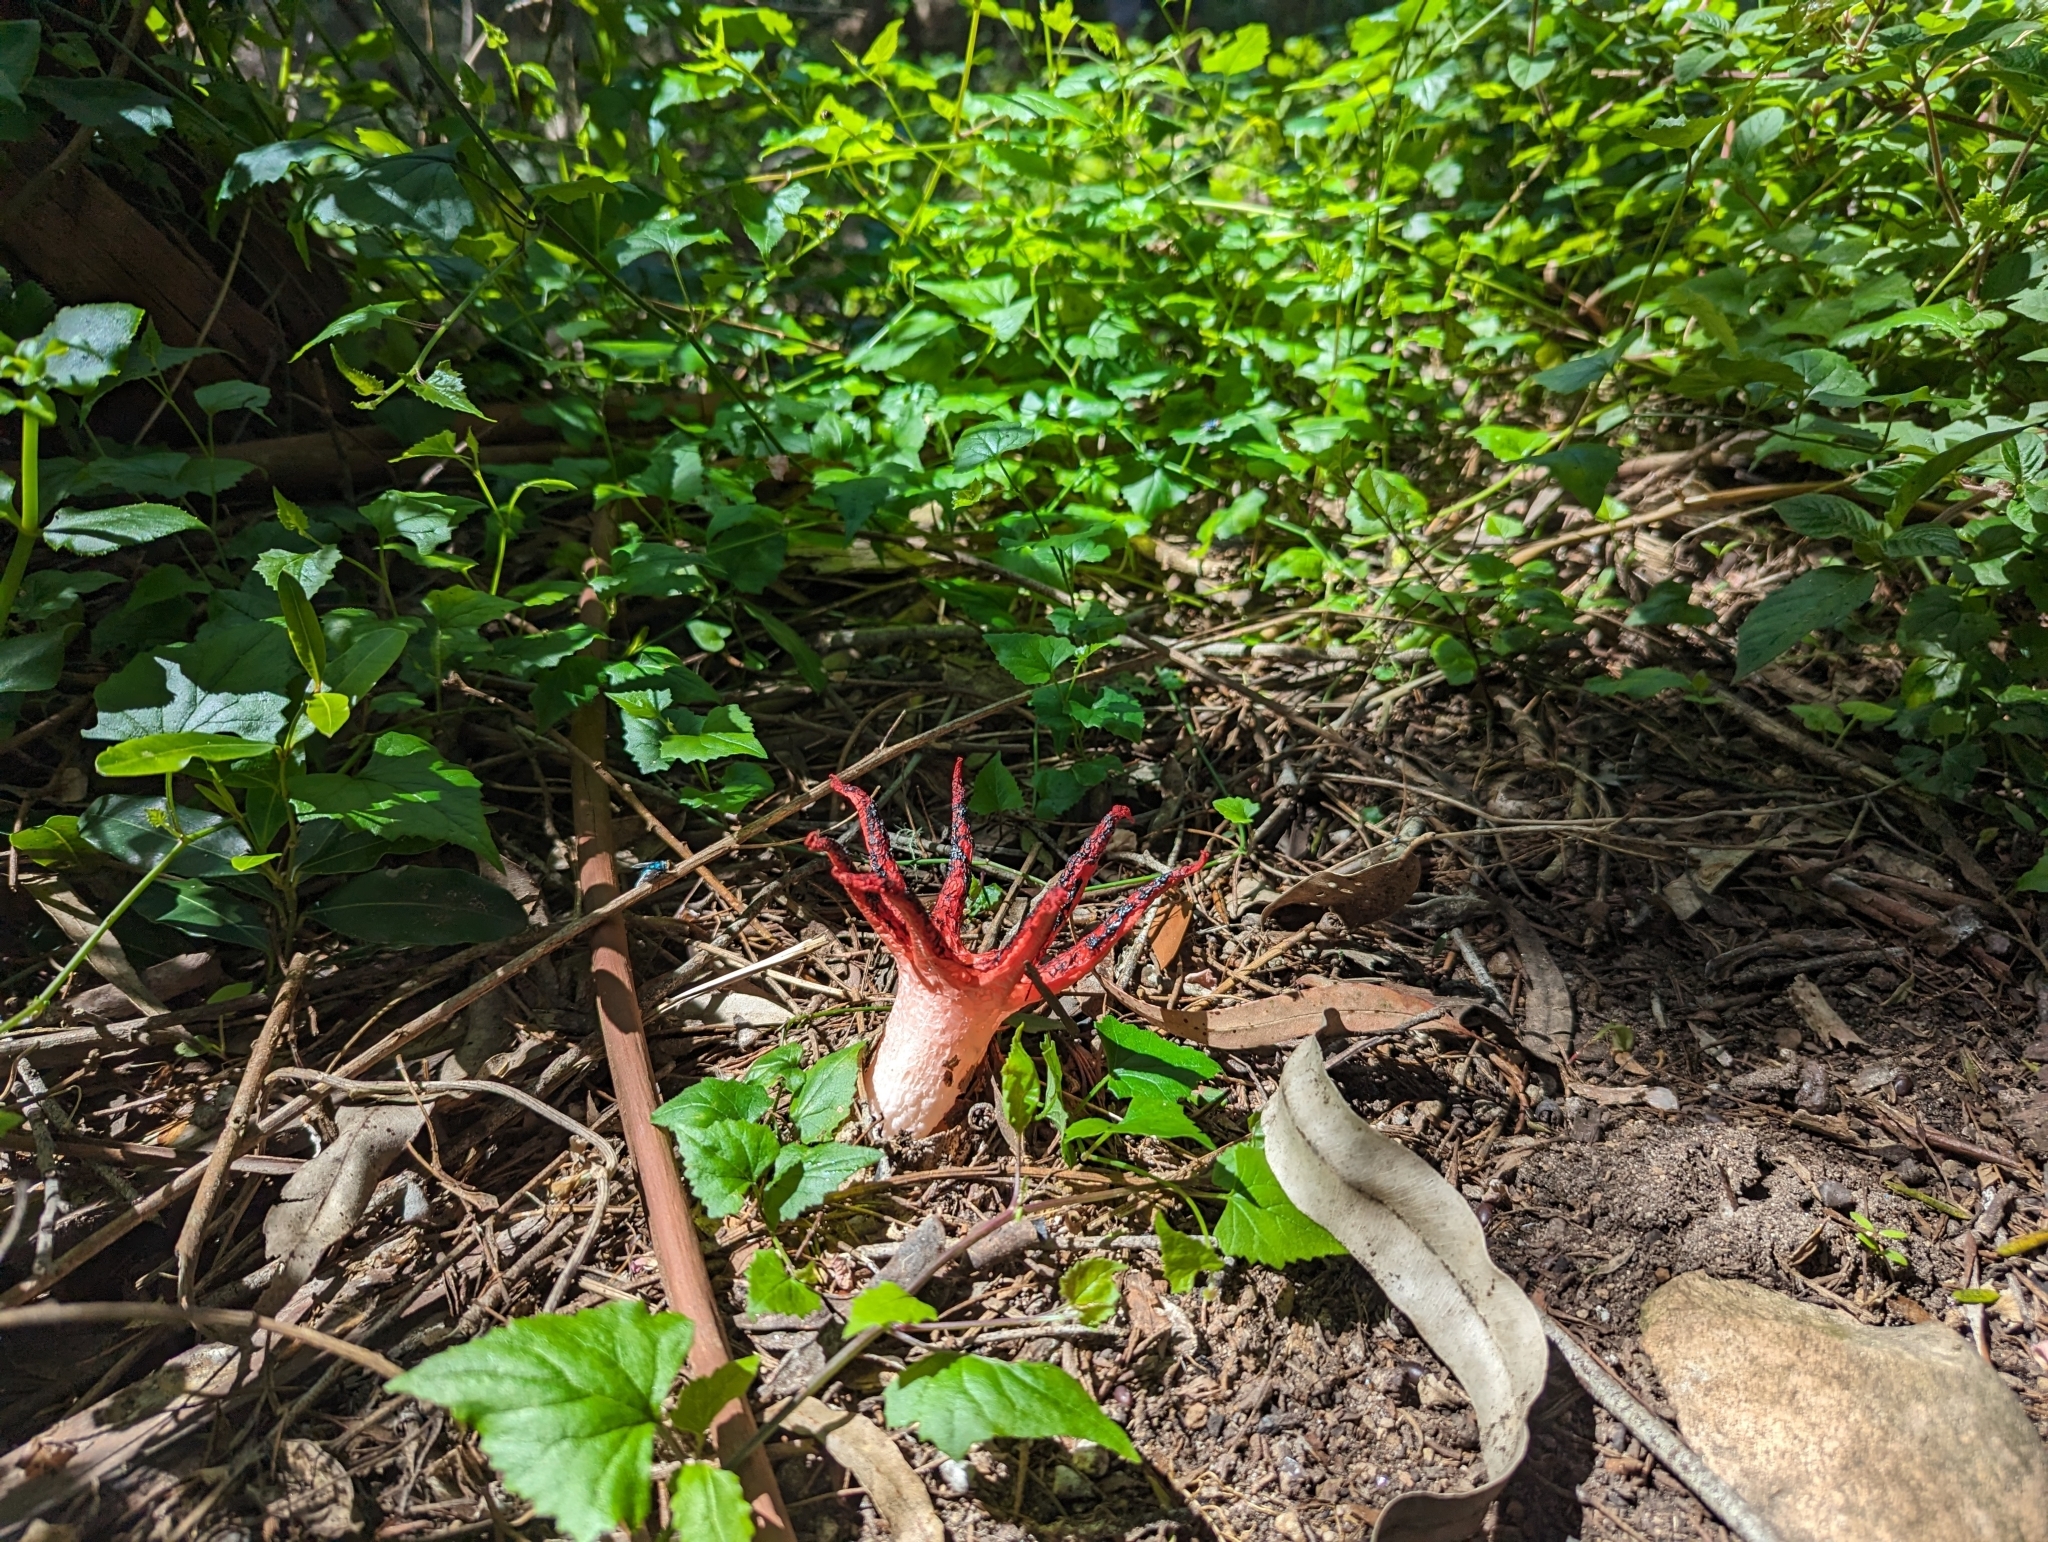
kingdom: Fungi
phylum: Basidiomycota
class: Agaricomycetes
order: Phallales
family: Phallaceae
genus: Aseroe
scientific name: Aseroe rubra
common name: Starfish fungus
